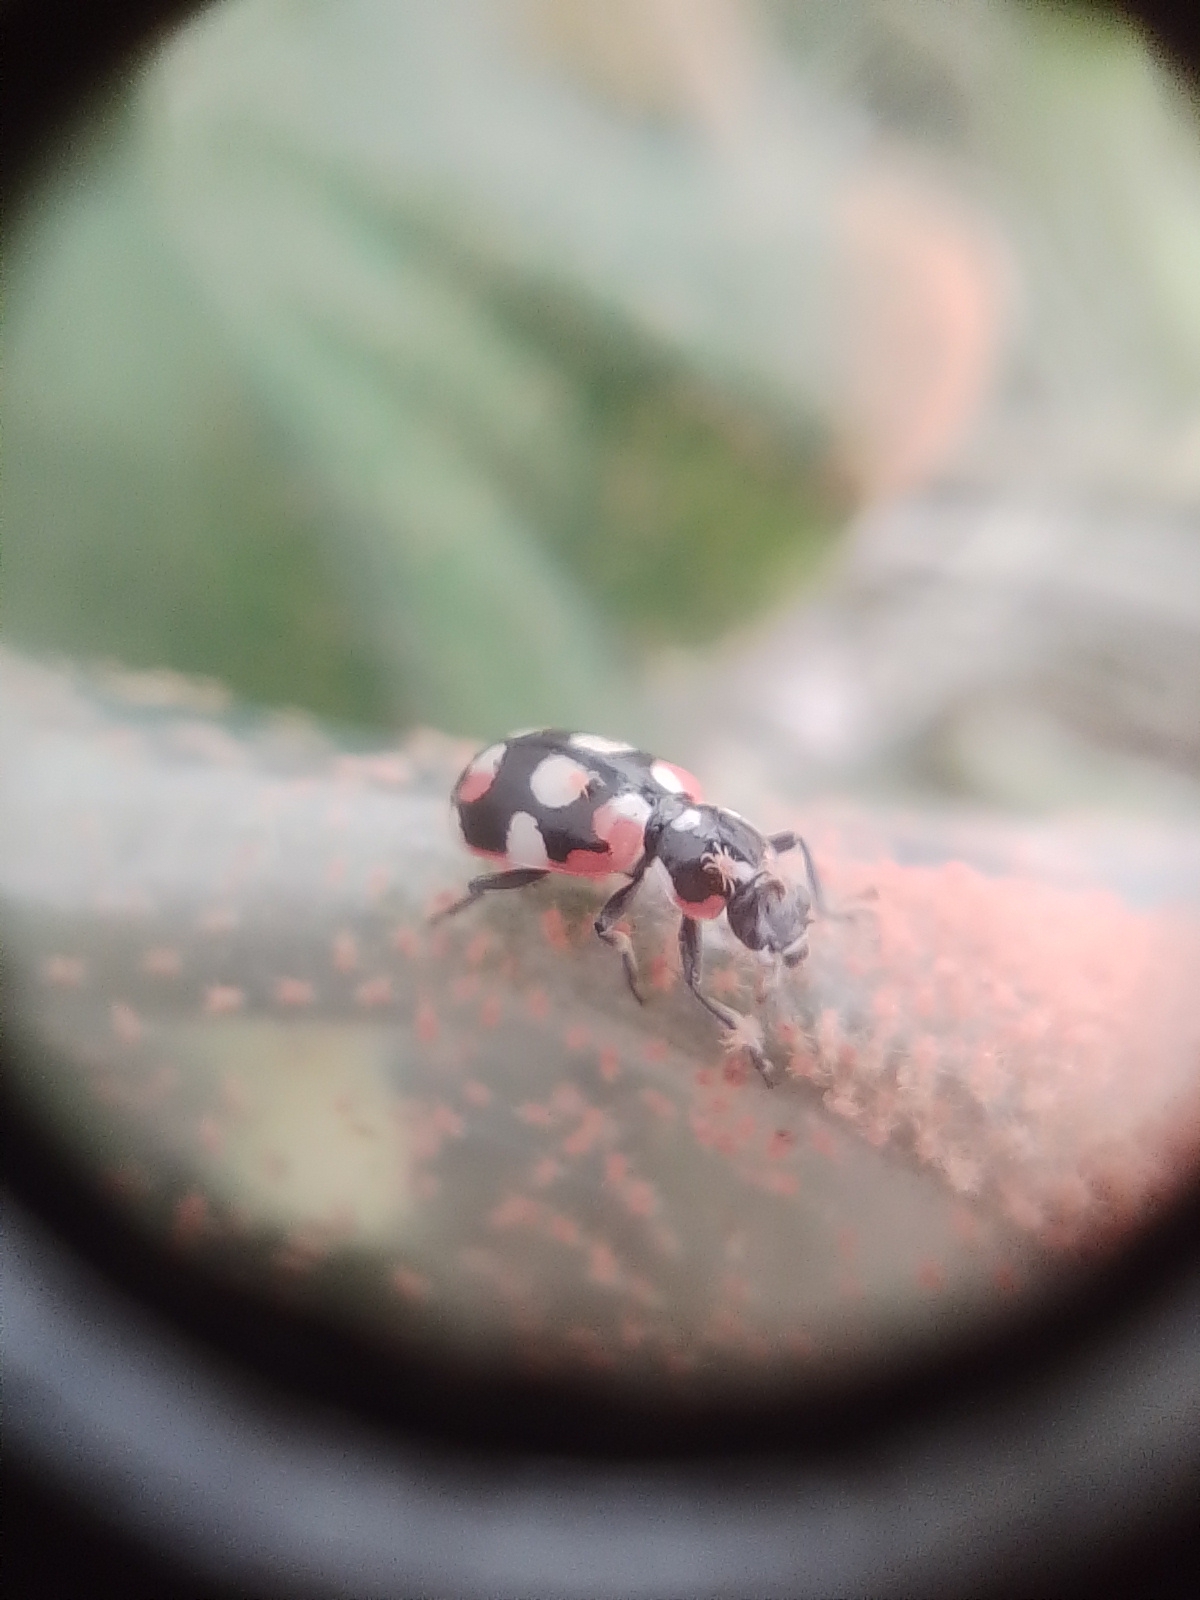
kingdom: Animalia
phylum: Arthropoda
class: Insecta
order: Coleoptera
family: Coccinellidae
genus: Eriopis
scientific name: Eriopis connexa
